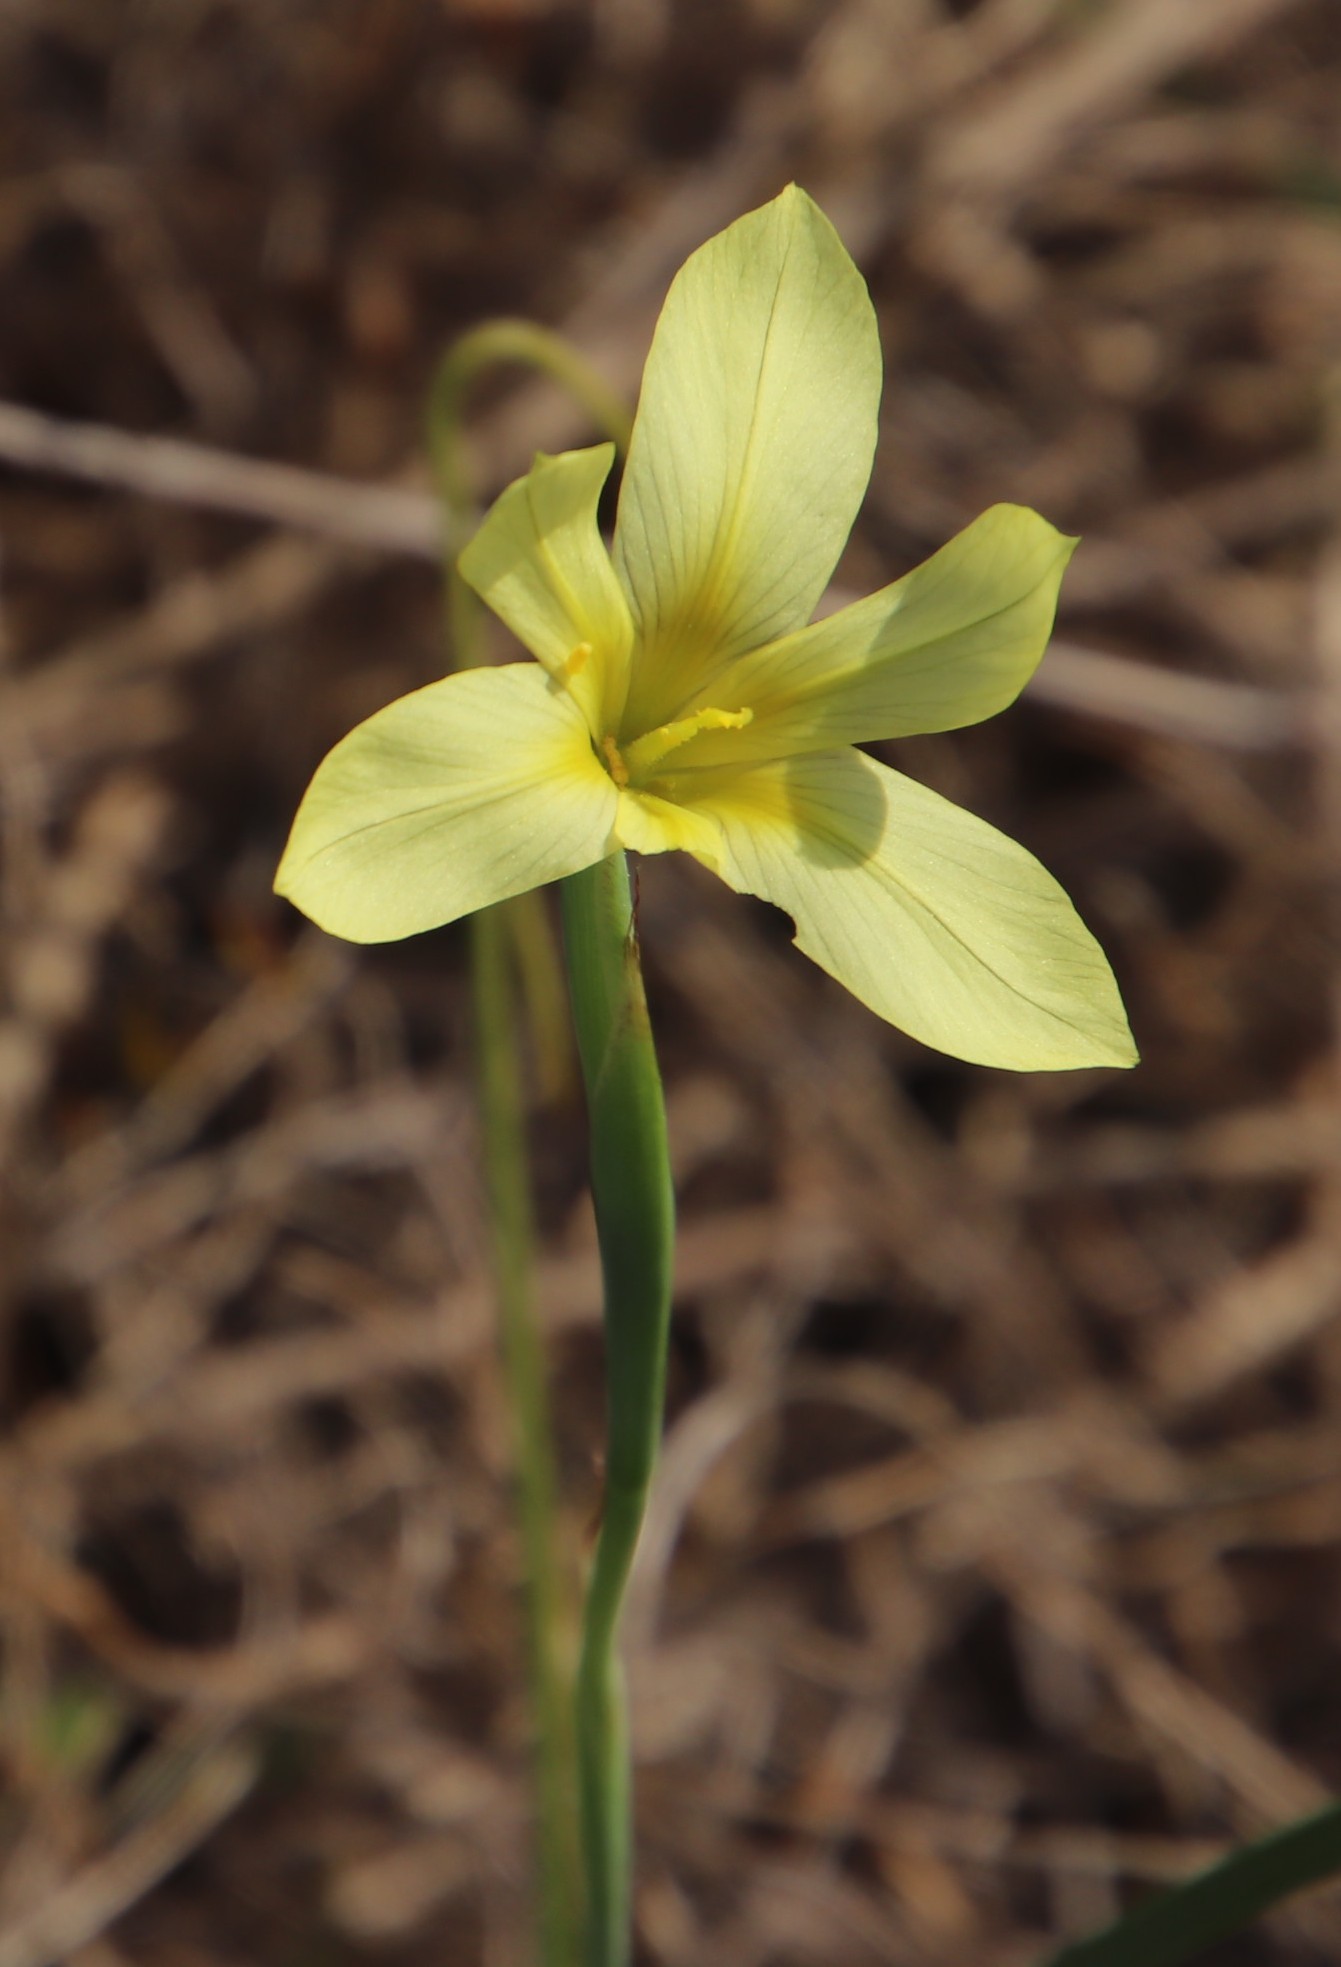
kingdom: Plantae
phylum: Tracheophyta
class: Liliopsida
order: Asparagales
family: Iridaceae
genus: Moraea
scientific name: Moraea collina
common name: Cape-tulip
